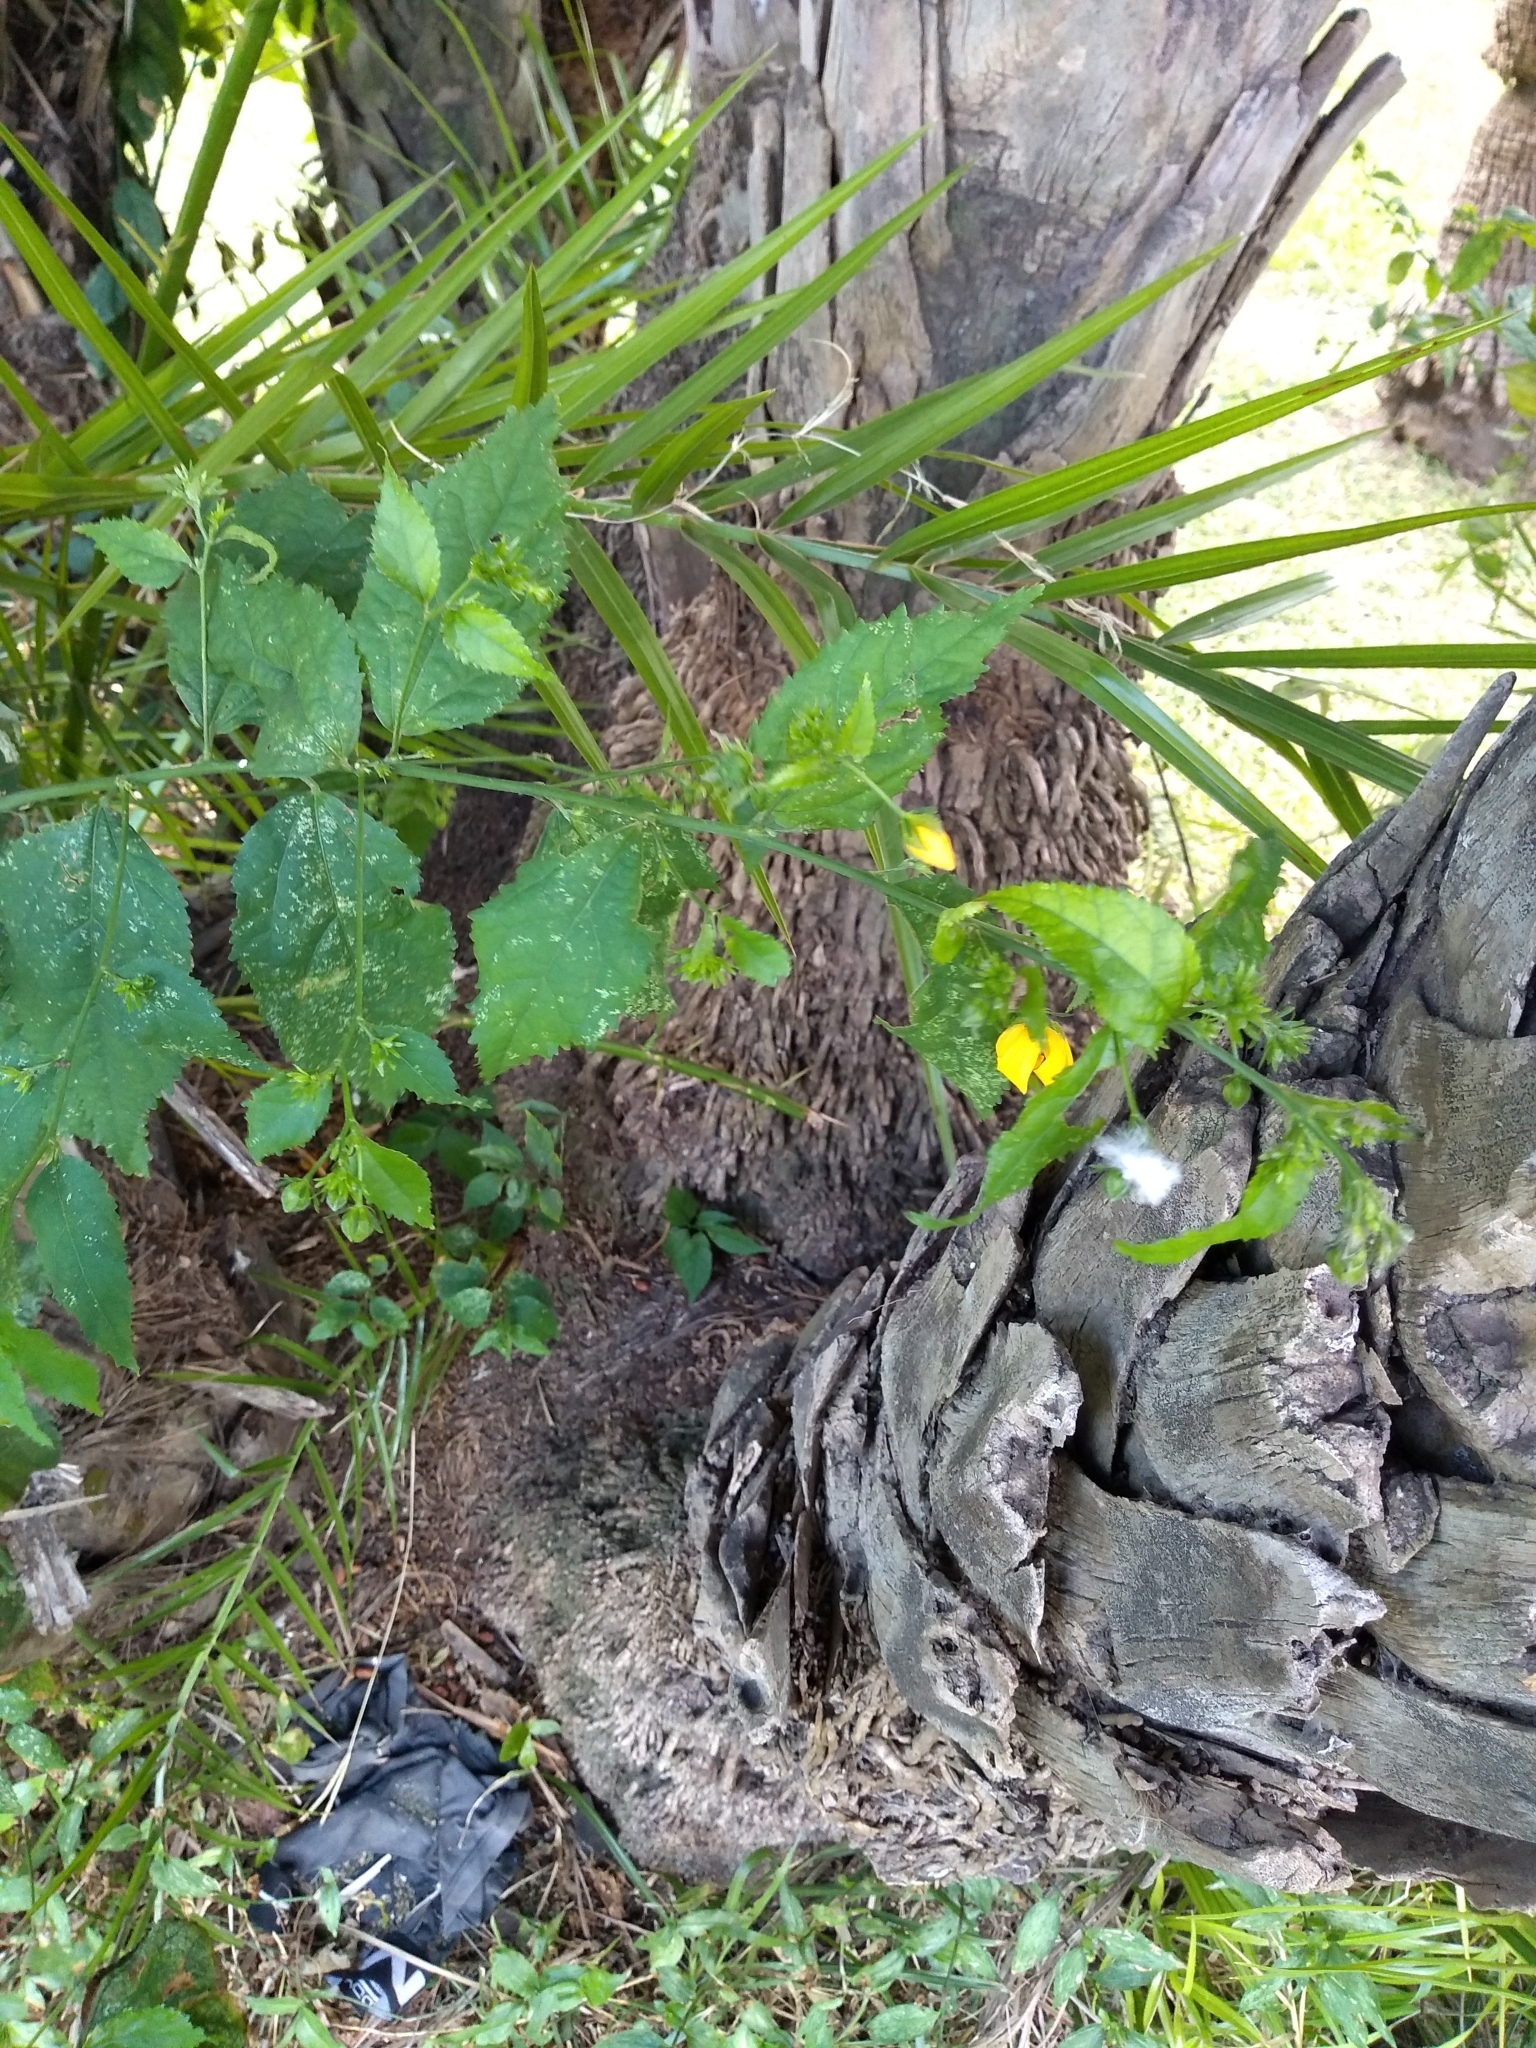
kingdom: Plantae
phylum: Tracheophyta
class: Magnoliopsida
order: Malvales
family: Malvaceae
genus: Pavonia
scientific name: Pavonia sepium
